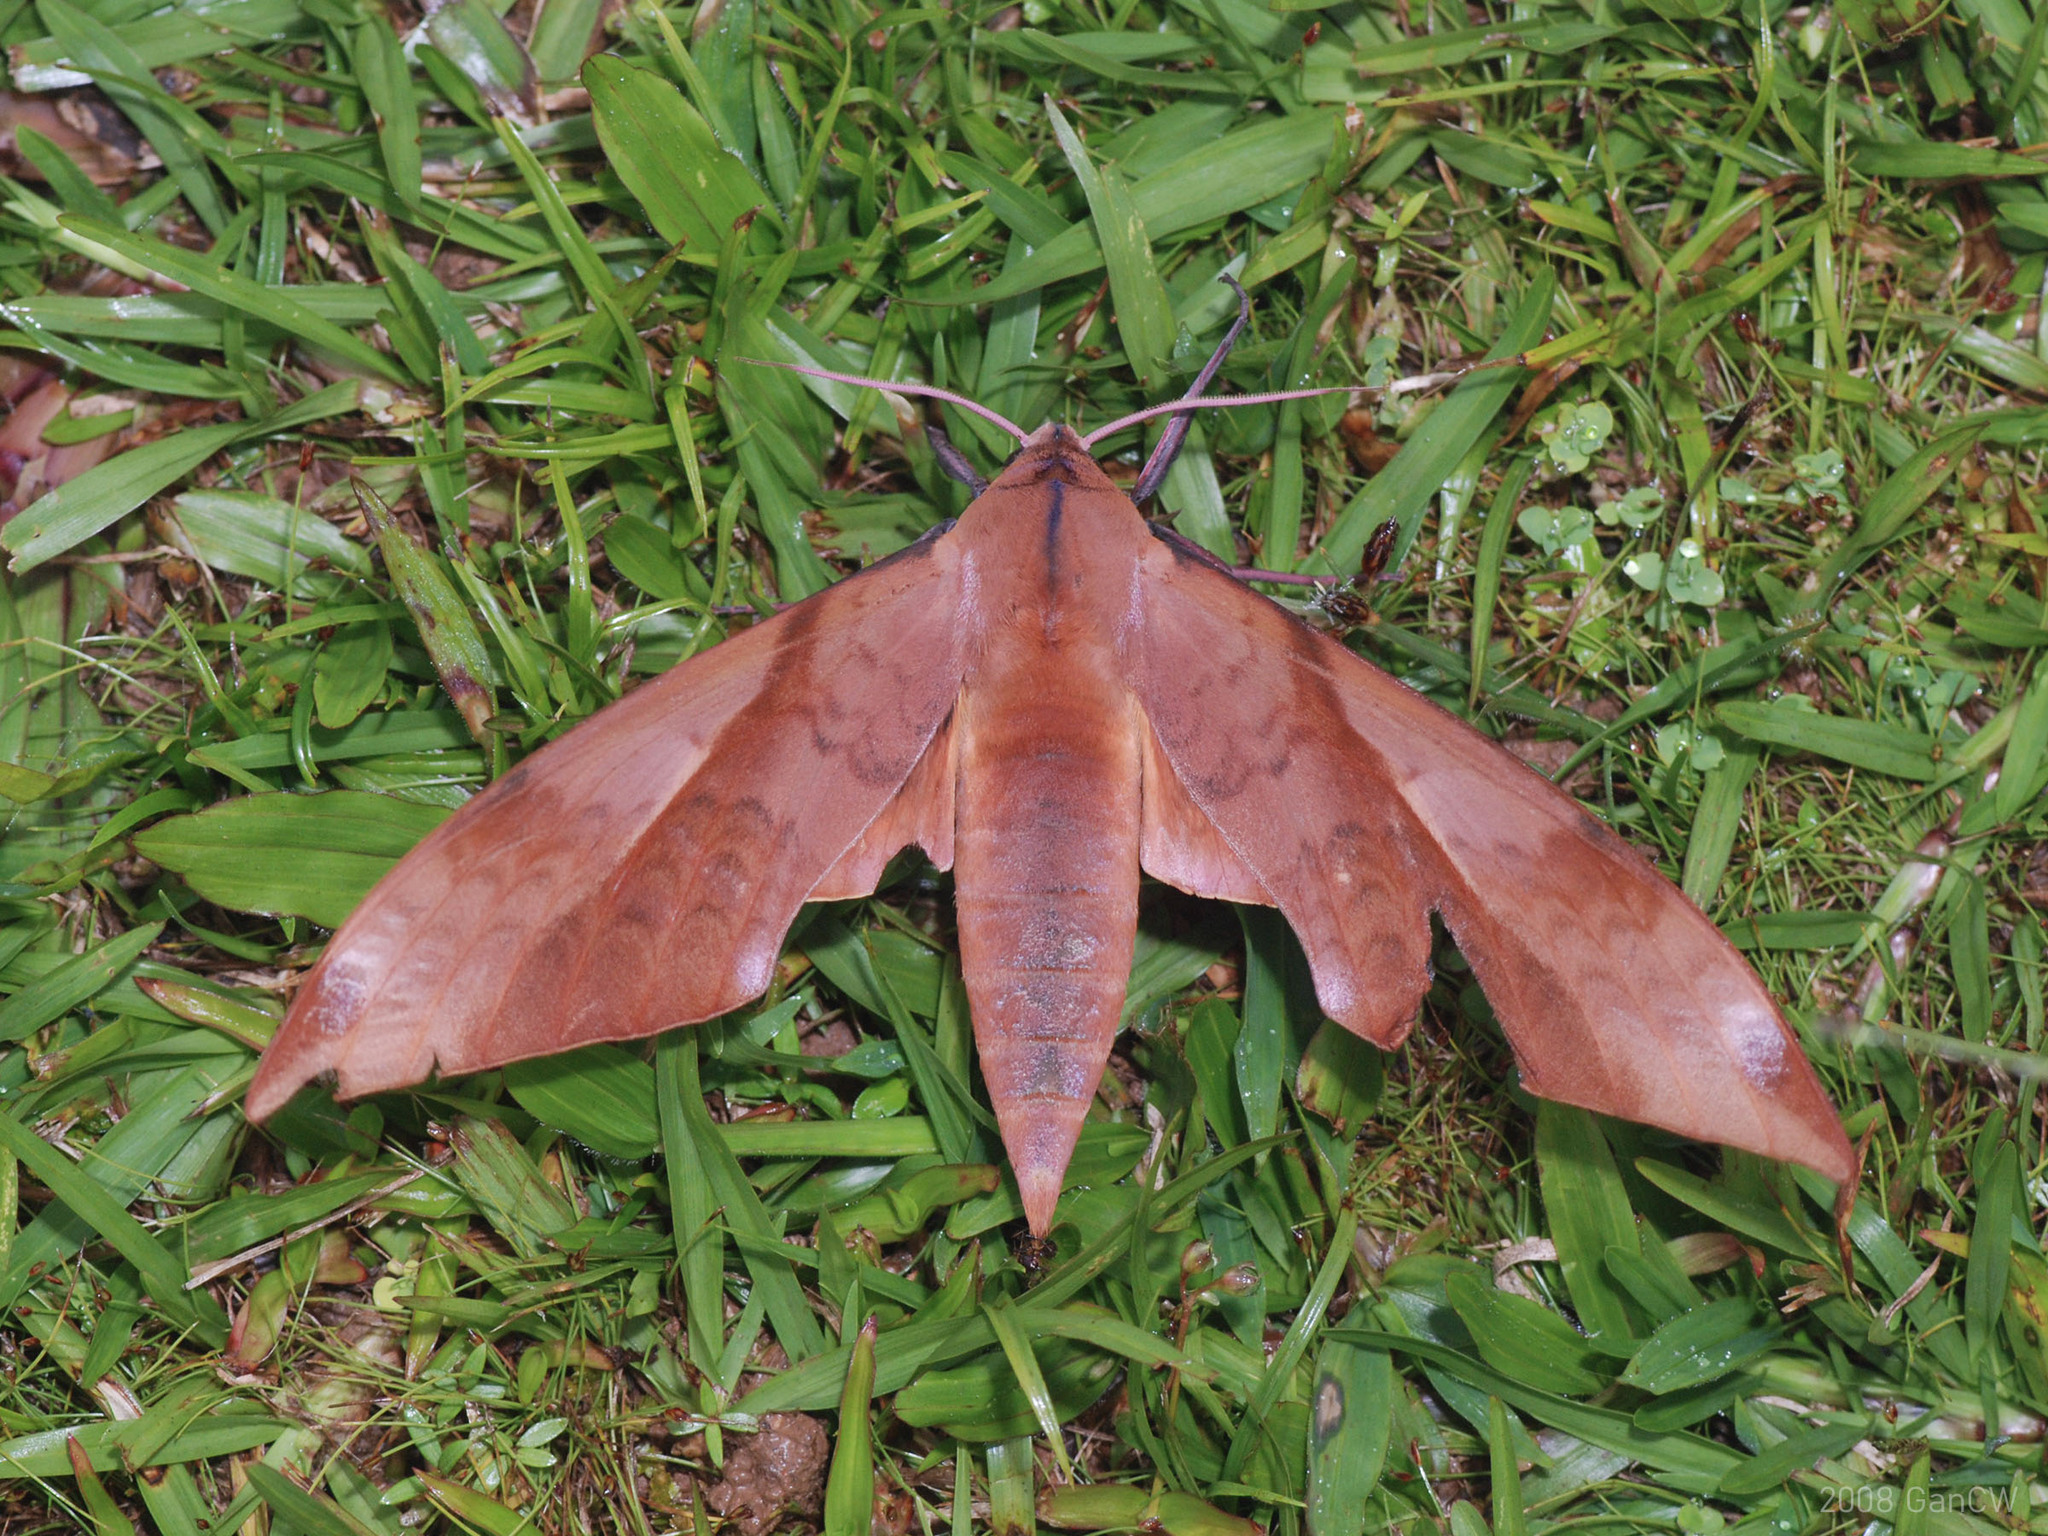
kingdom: Animalia
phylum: Arthropoda
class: Insecta
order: Lepidoptera
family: Sphingidae
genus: Clanis
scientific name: Clanis undulosa
